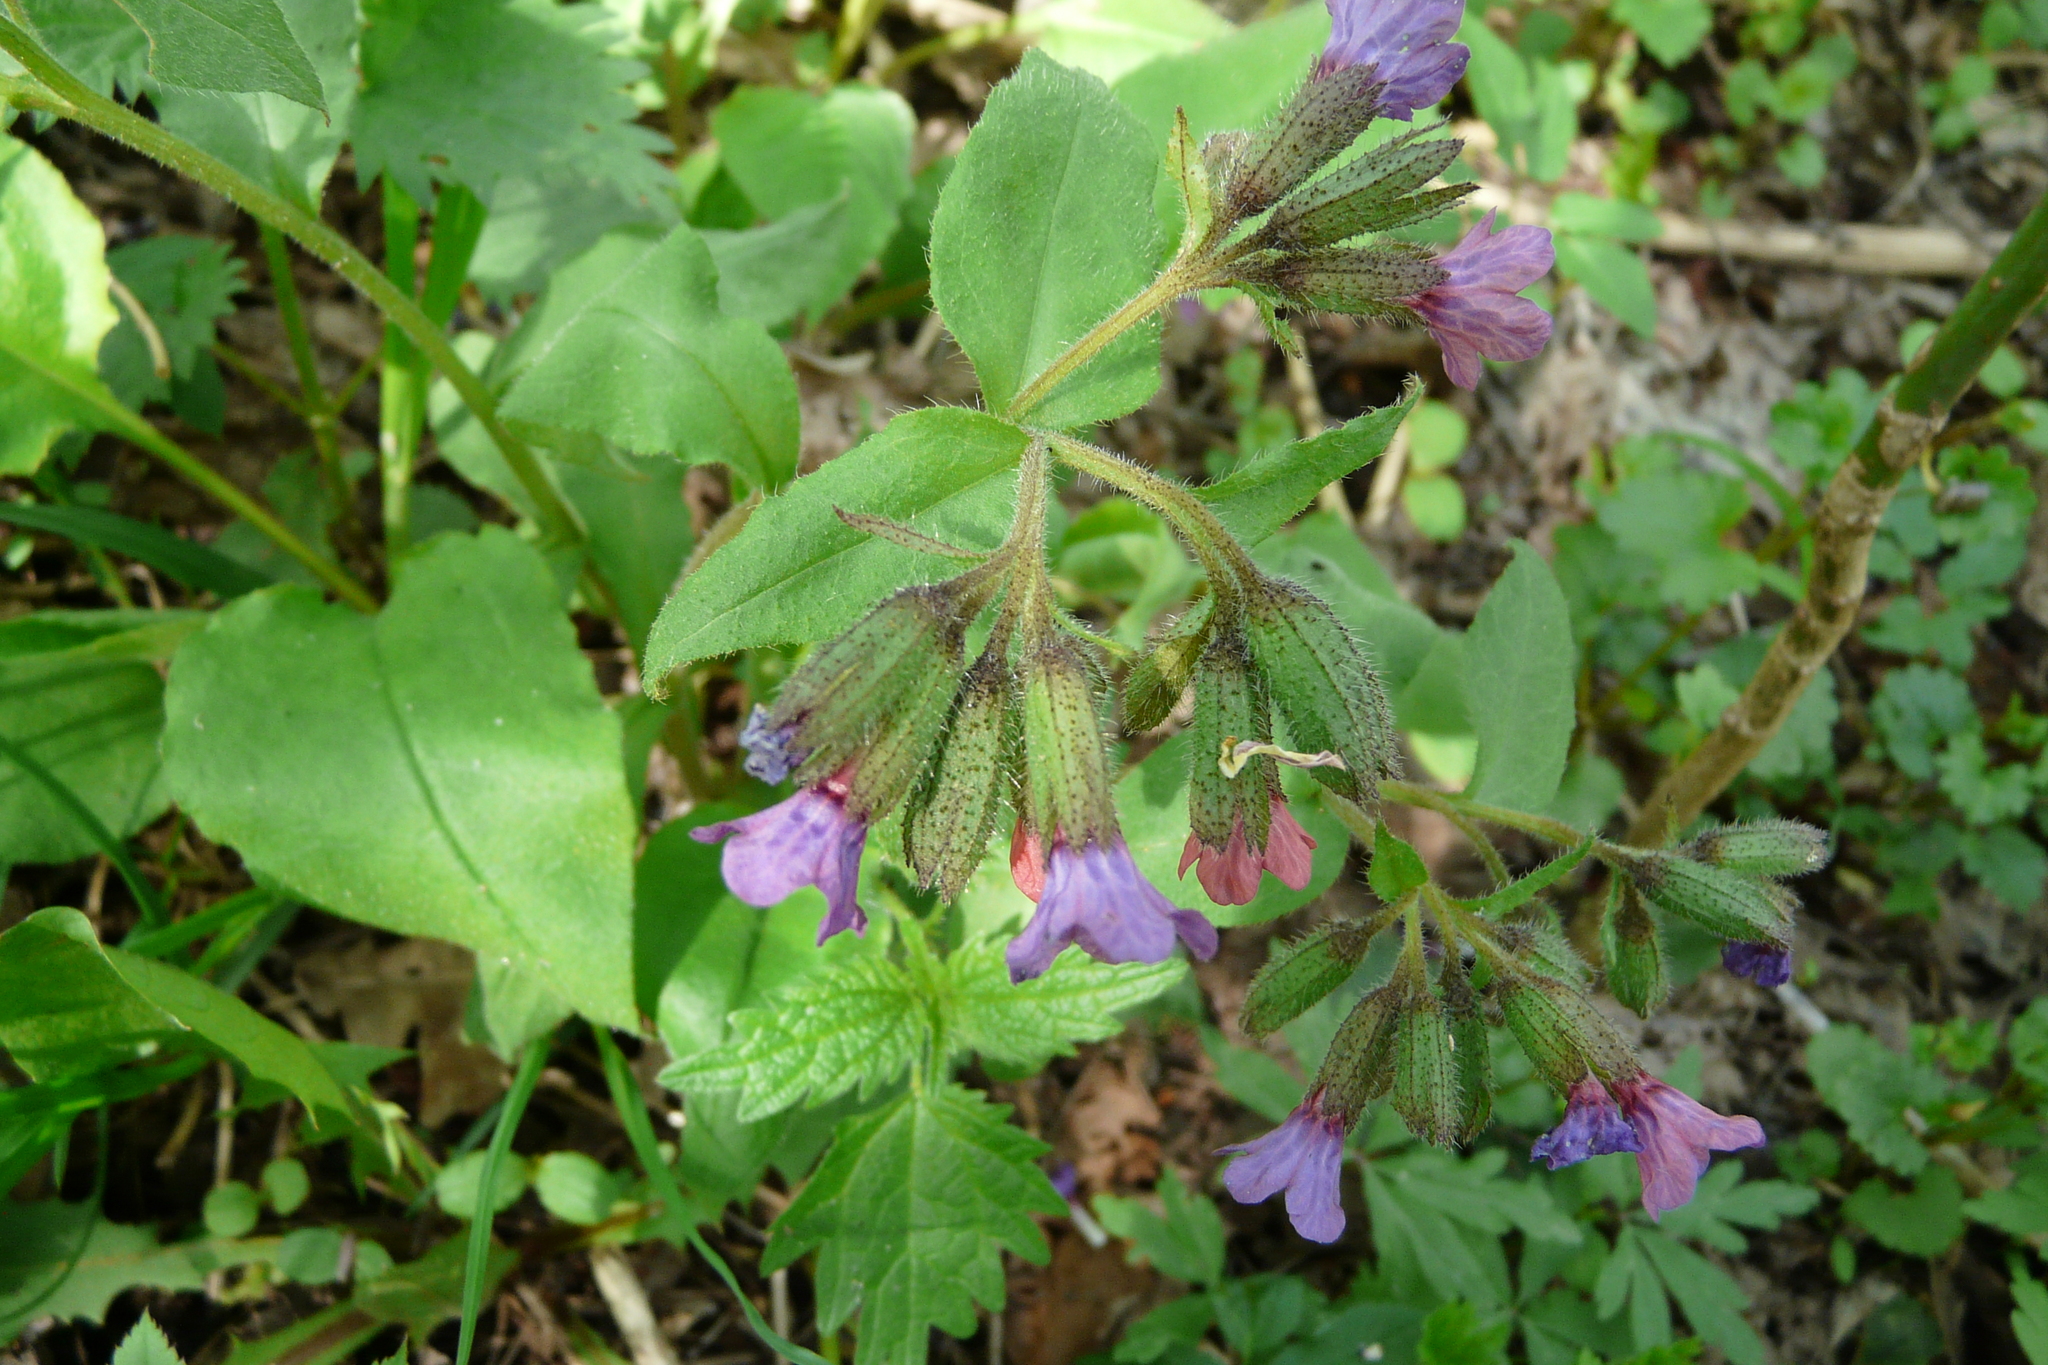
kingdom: Plantae
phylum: Tracheophyta
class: Magnoliopsida
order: Boraginales
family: Boraginaceae
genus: Pulmonaria
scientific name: Pulmonaria obscura
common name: Suffolk lungwort
